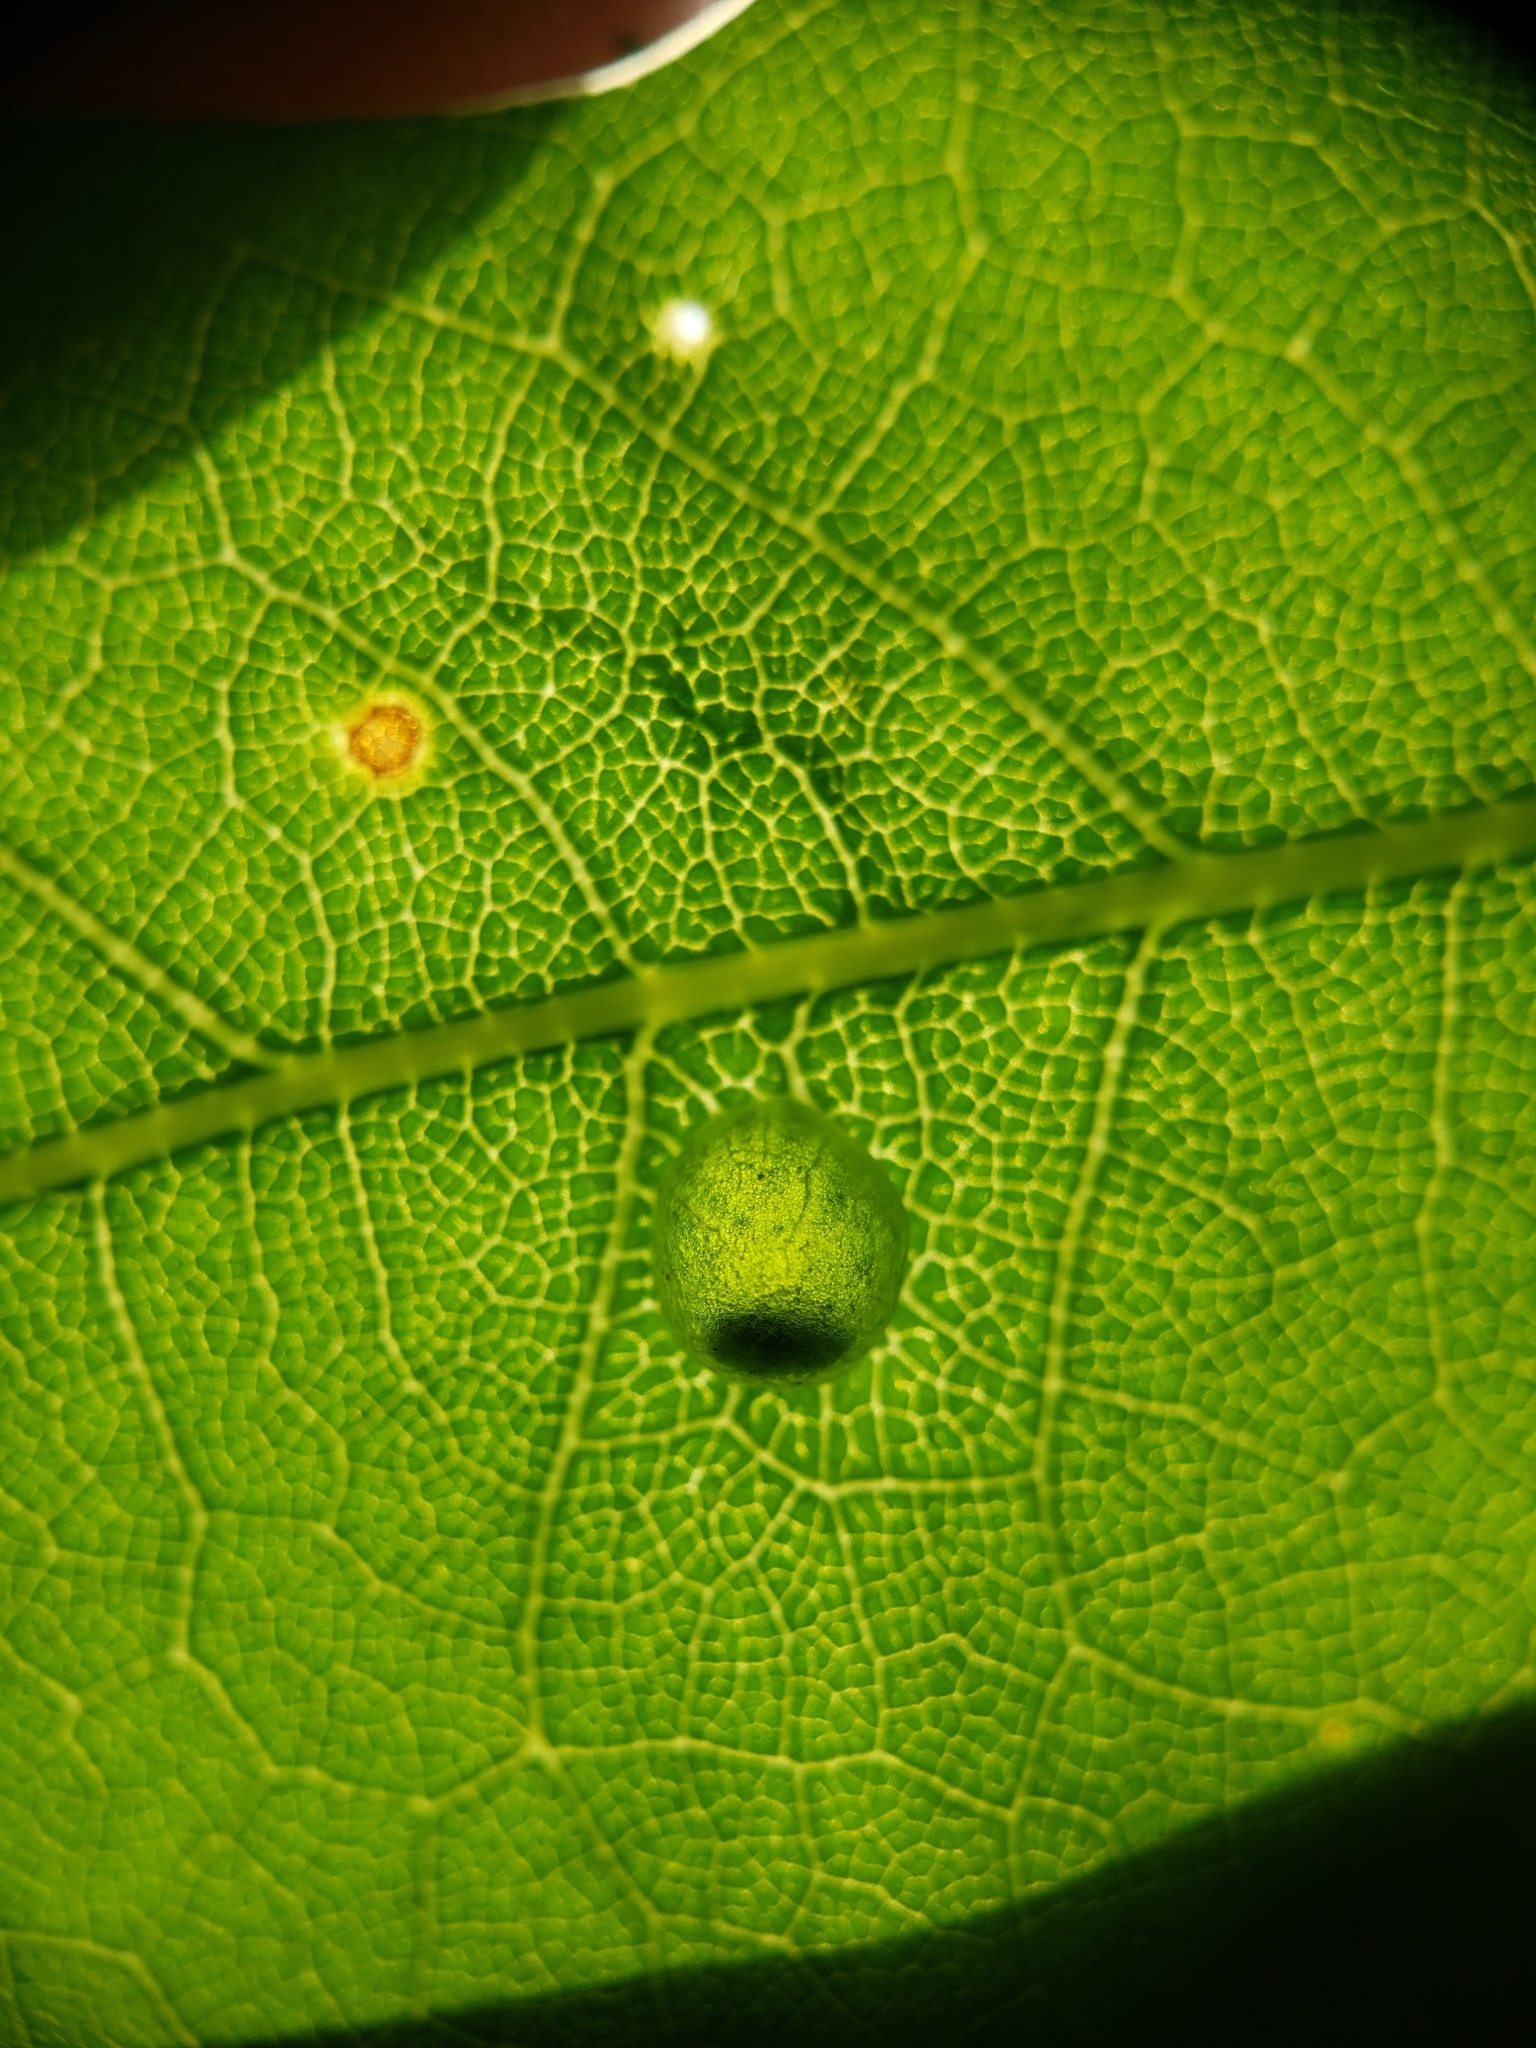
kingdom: Animalia
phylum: Arthropoda
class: Insecta
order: Hymenoptera
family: Cynipidae
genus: Dryocosmus
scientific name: Dryocosmus
